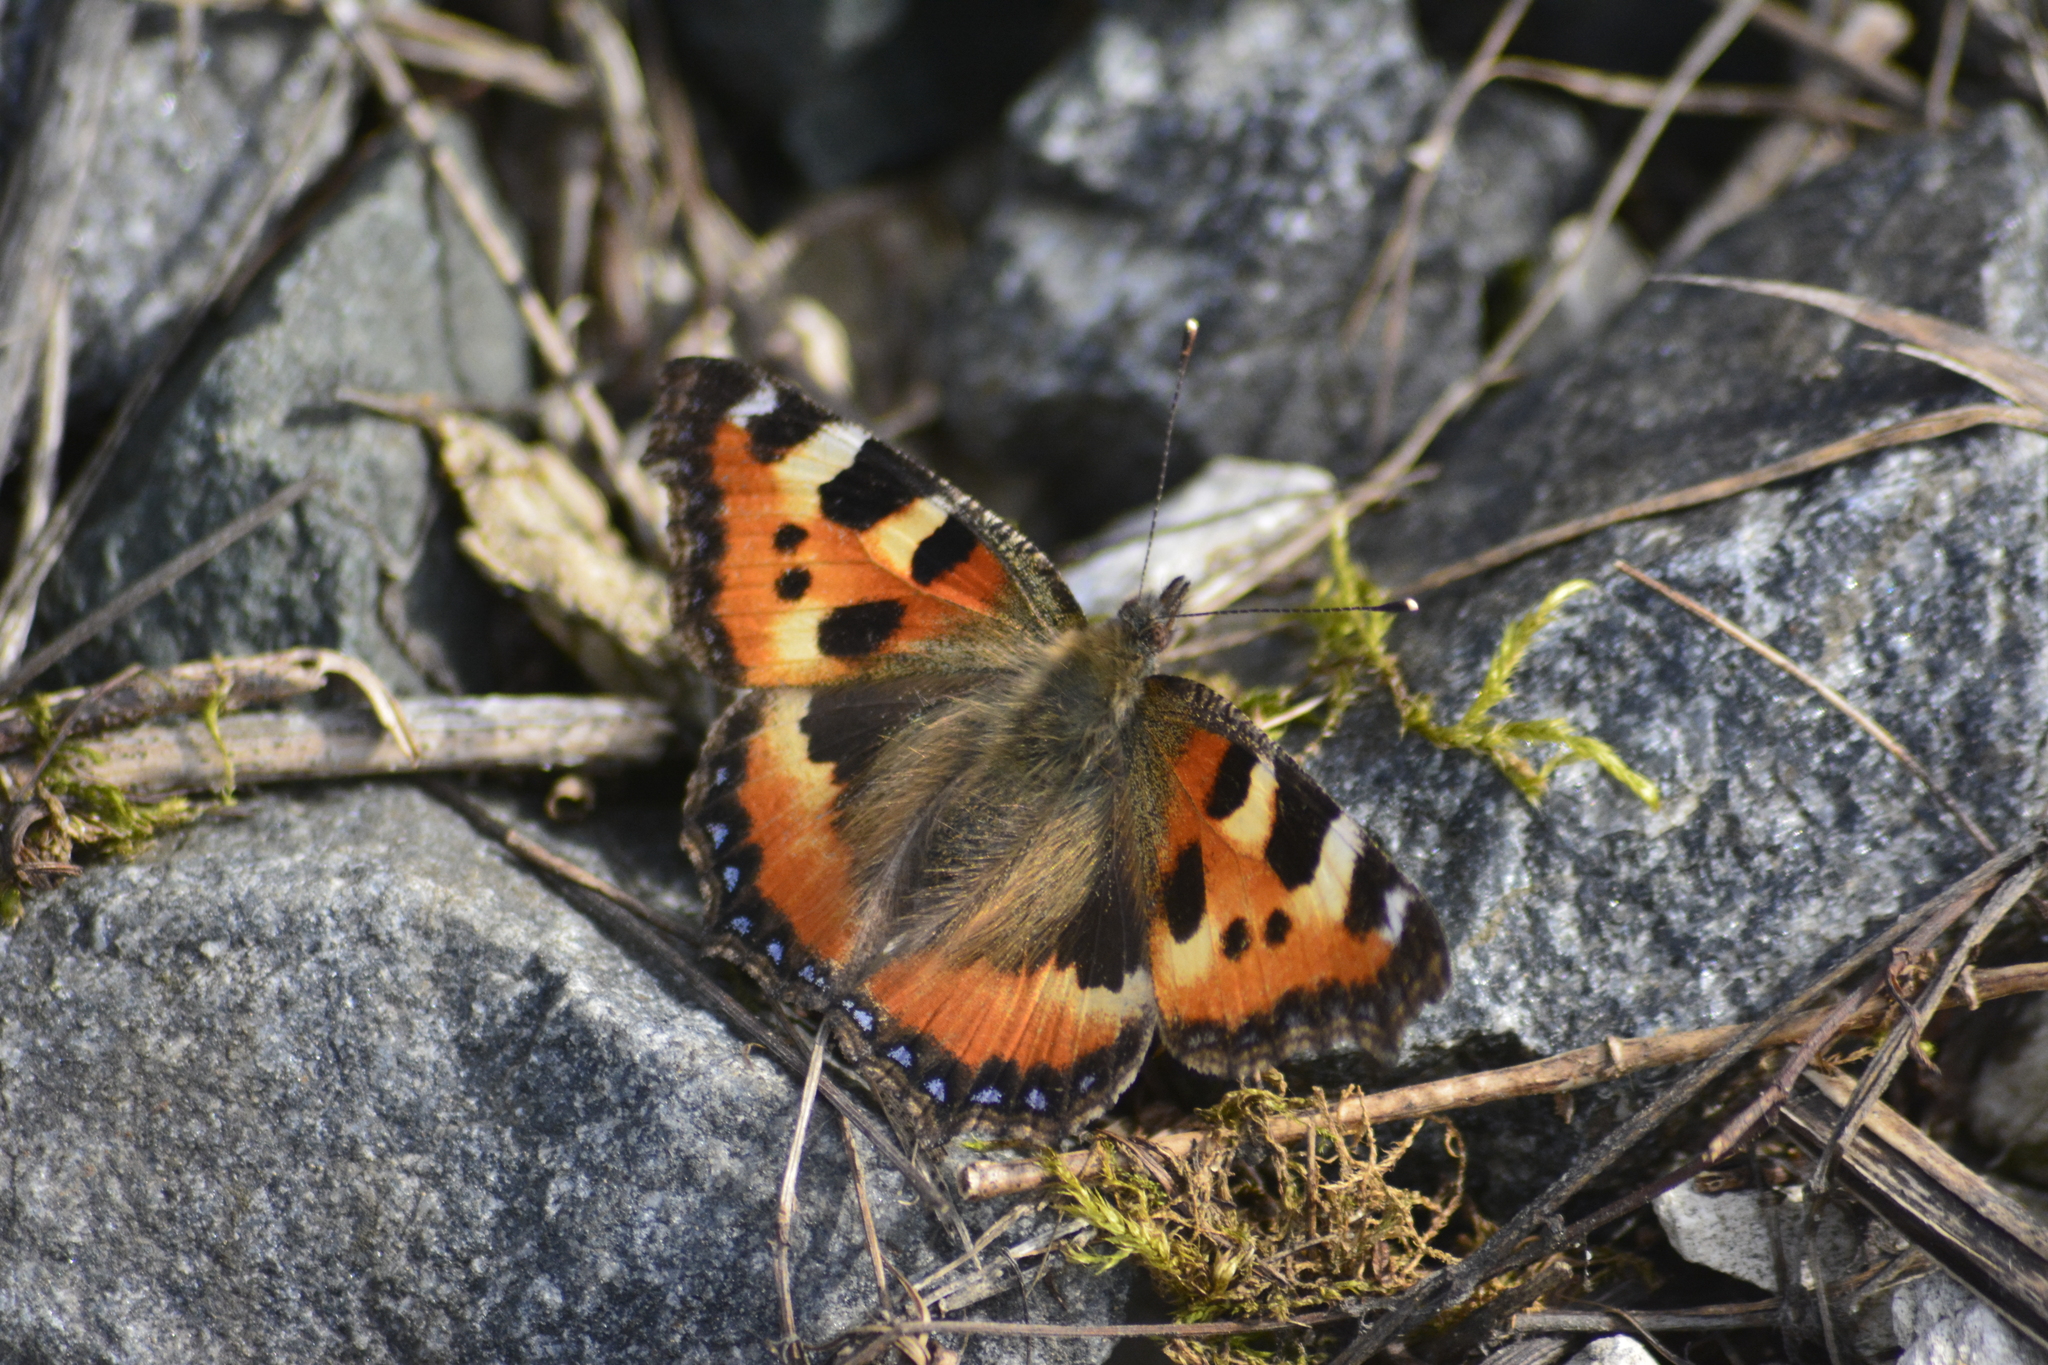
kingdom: Animalia
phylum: Arthropoda
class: Insecta
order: Lepidoptera
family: Nymphalidae
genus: Aglais
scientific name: Aglais urticae
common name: Small tortoiseshell
